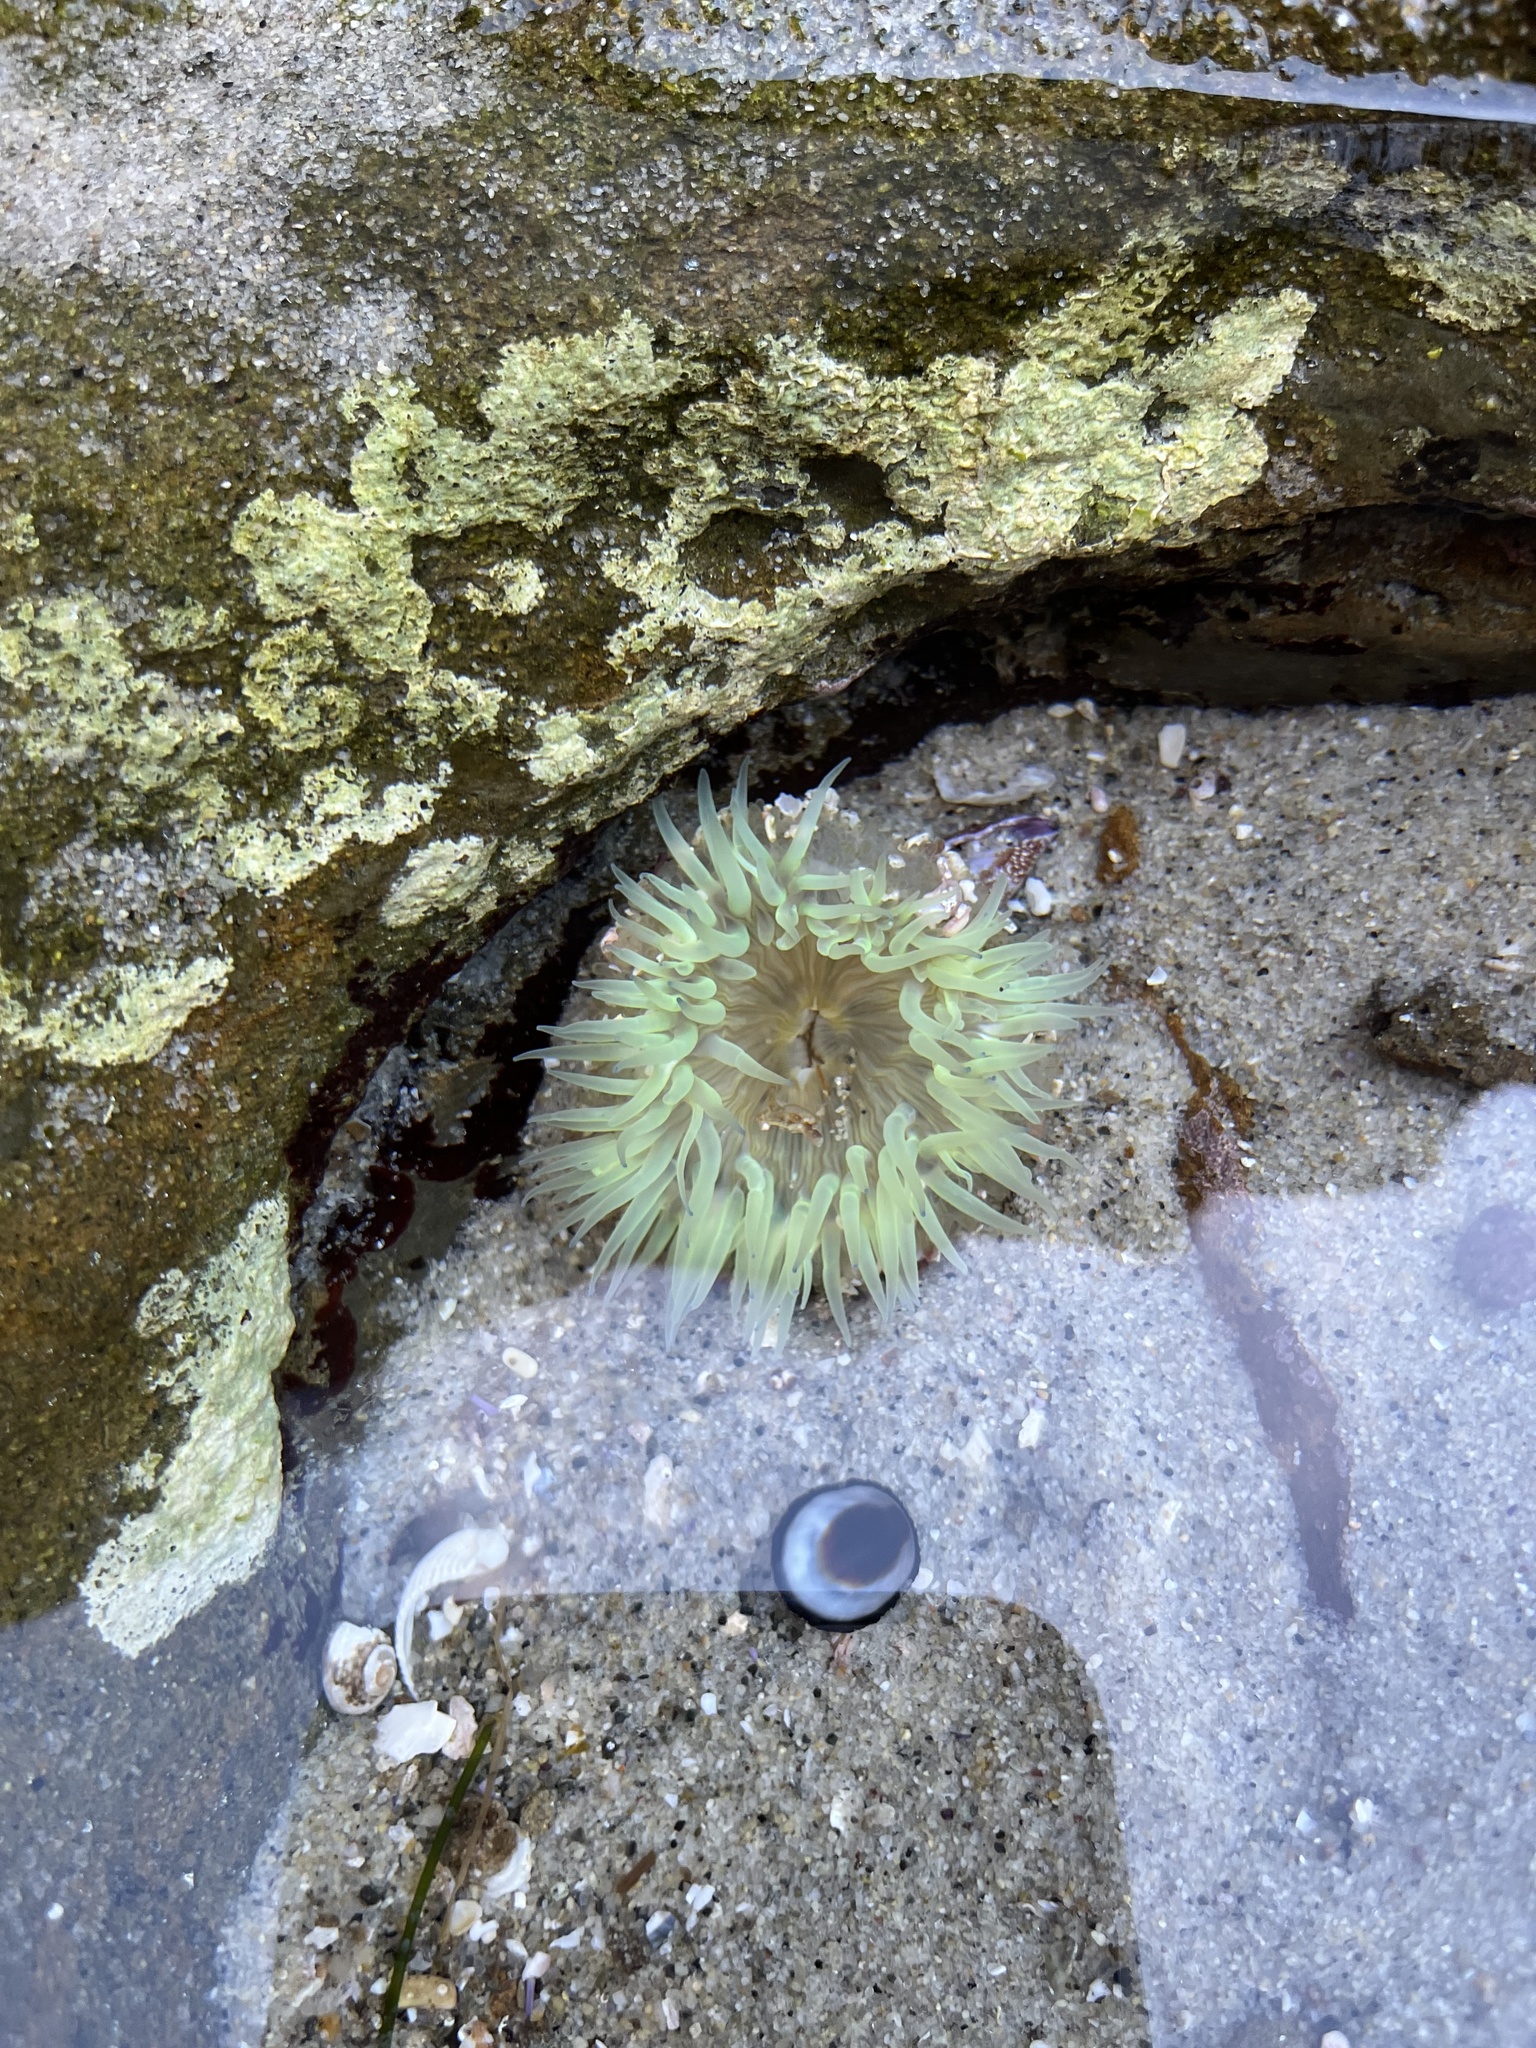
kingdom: Animalia
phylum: Cnidaria
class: Anthozoa
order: Actiniaria
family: Actiniidae
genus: Anthopleura
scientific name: Anthopleura sola
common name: Sun anemone
